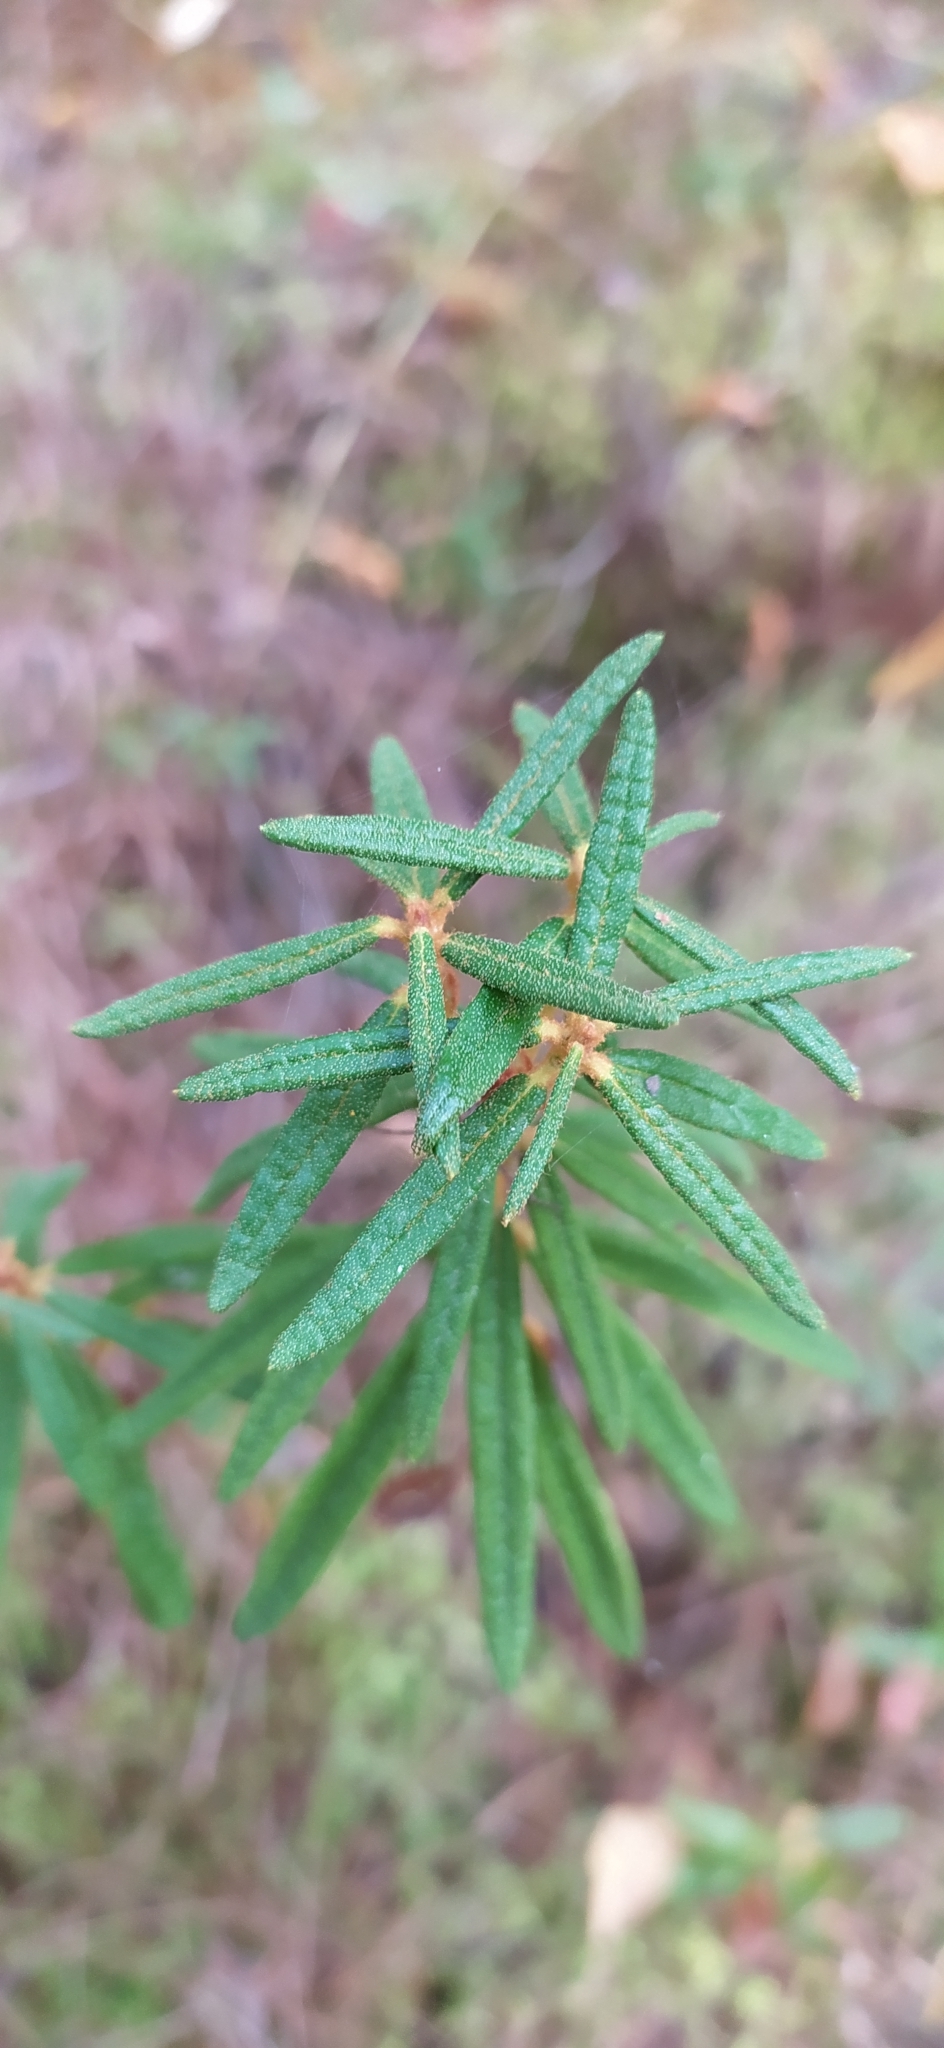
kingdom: Plantae
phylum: Tracheophyta
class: Magnoliopsida
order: Ericales
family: Ericaceae
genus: Rhododendron
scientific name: Rhododendron tomentosum
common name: Marsh labrador tea
